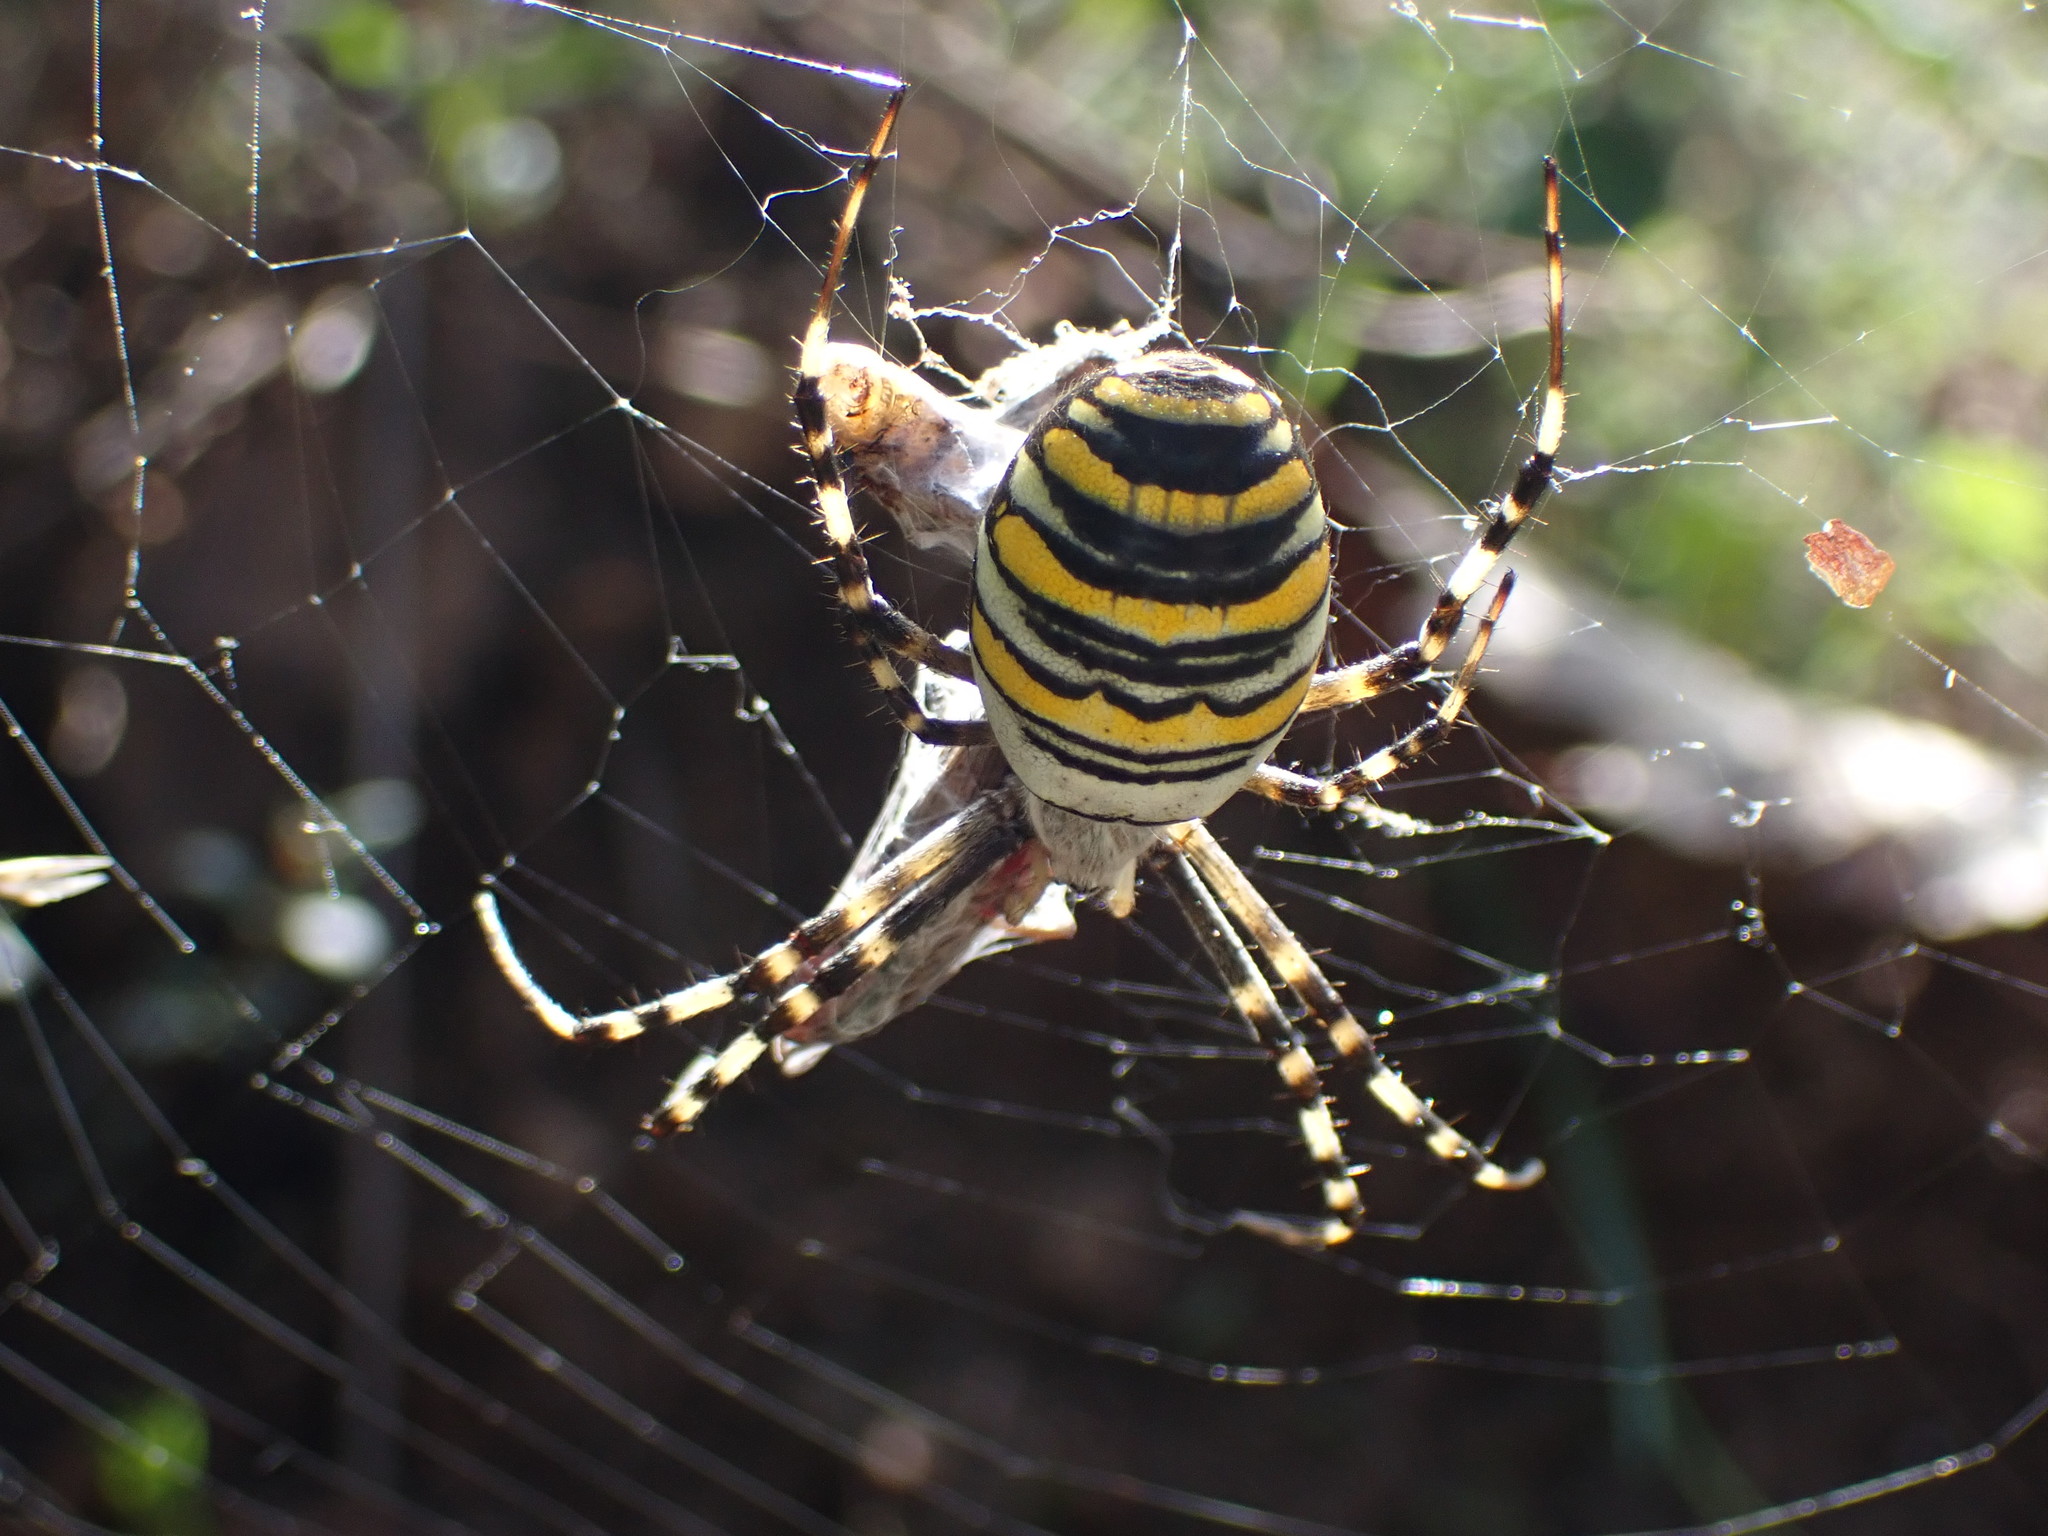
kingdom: Animalia
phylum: Arthropoda
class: Arachnida
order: Araneae
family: Araneidae
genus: Argiope
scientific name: Argiope bruennichi
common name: Wasp spider
